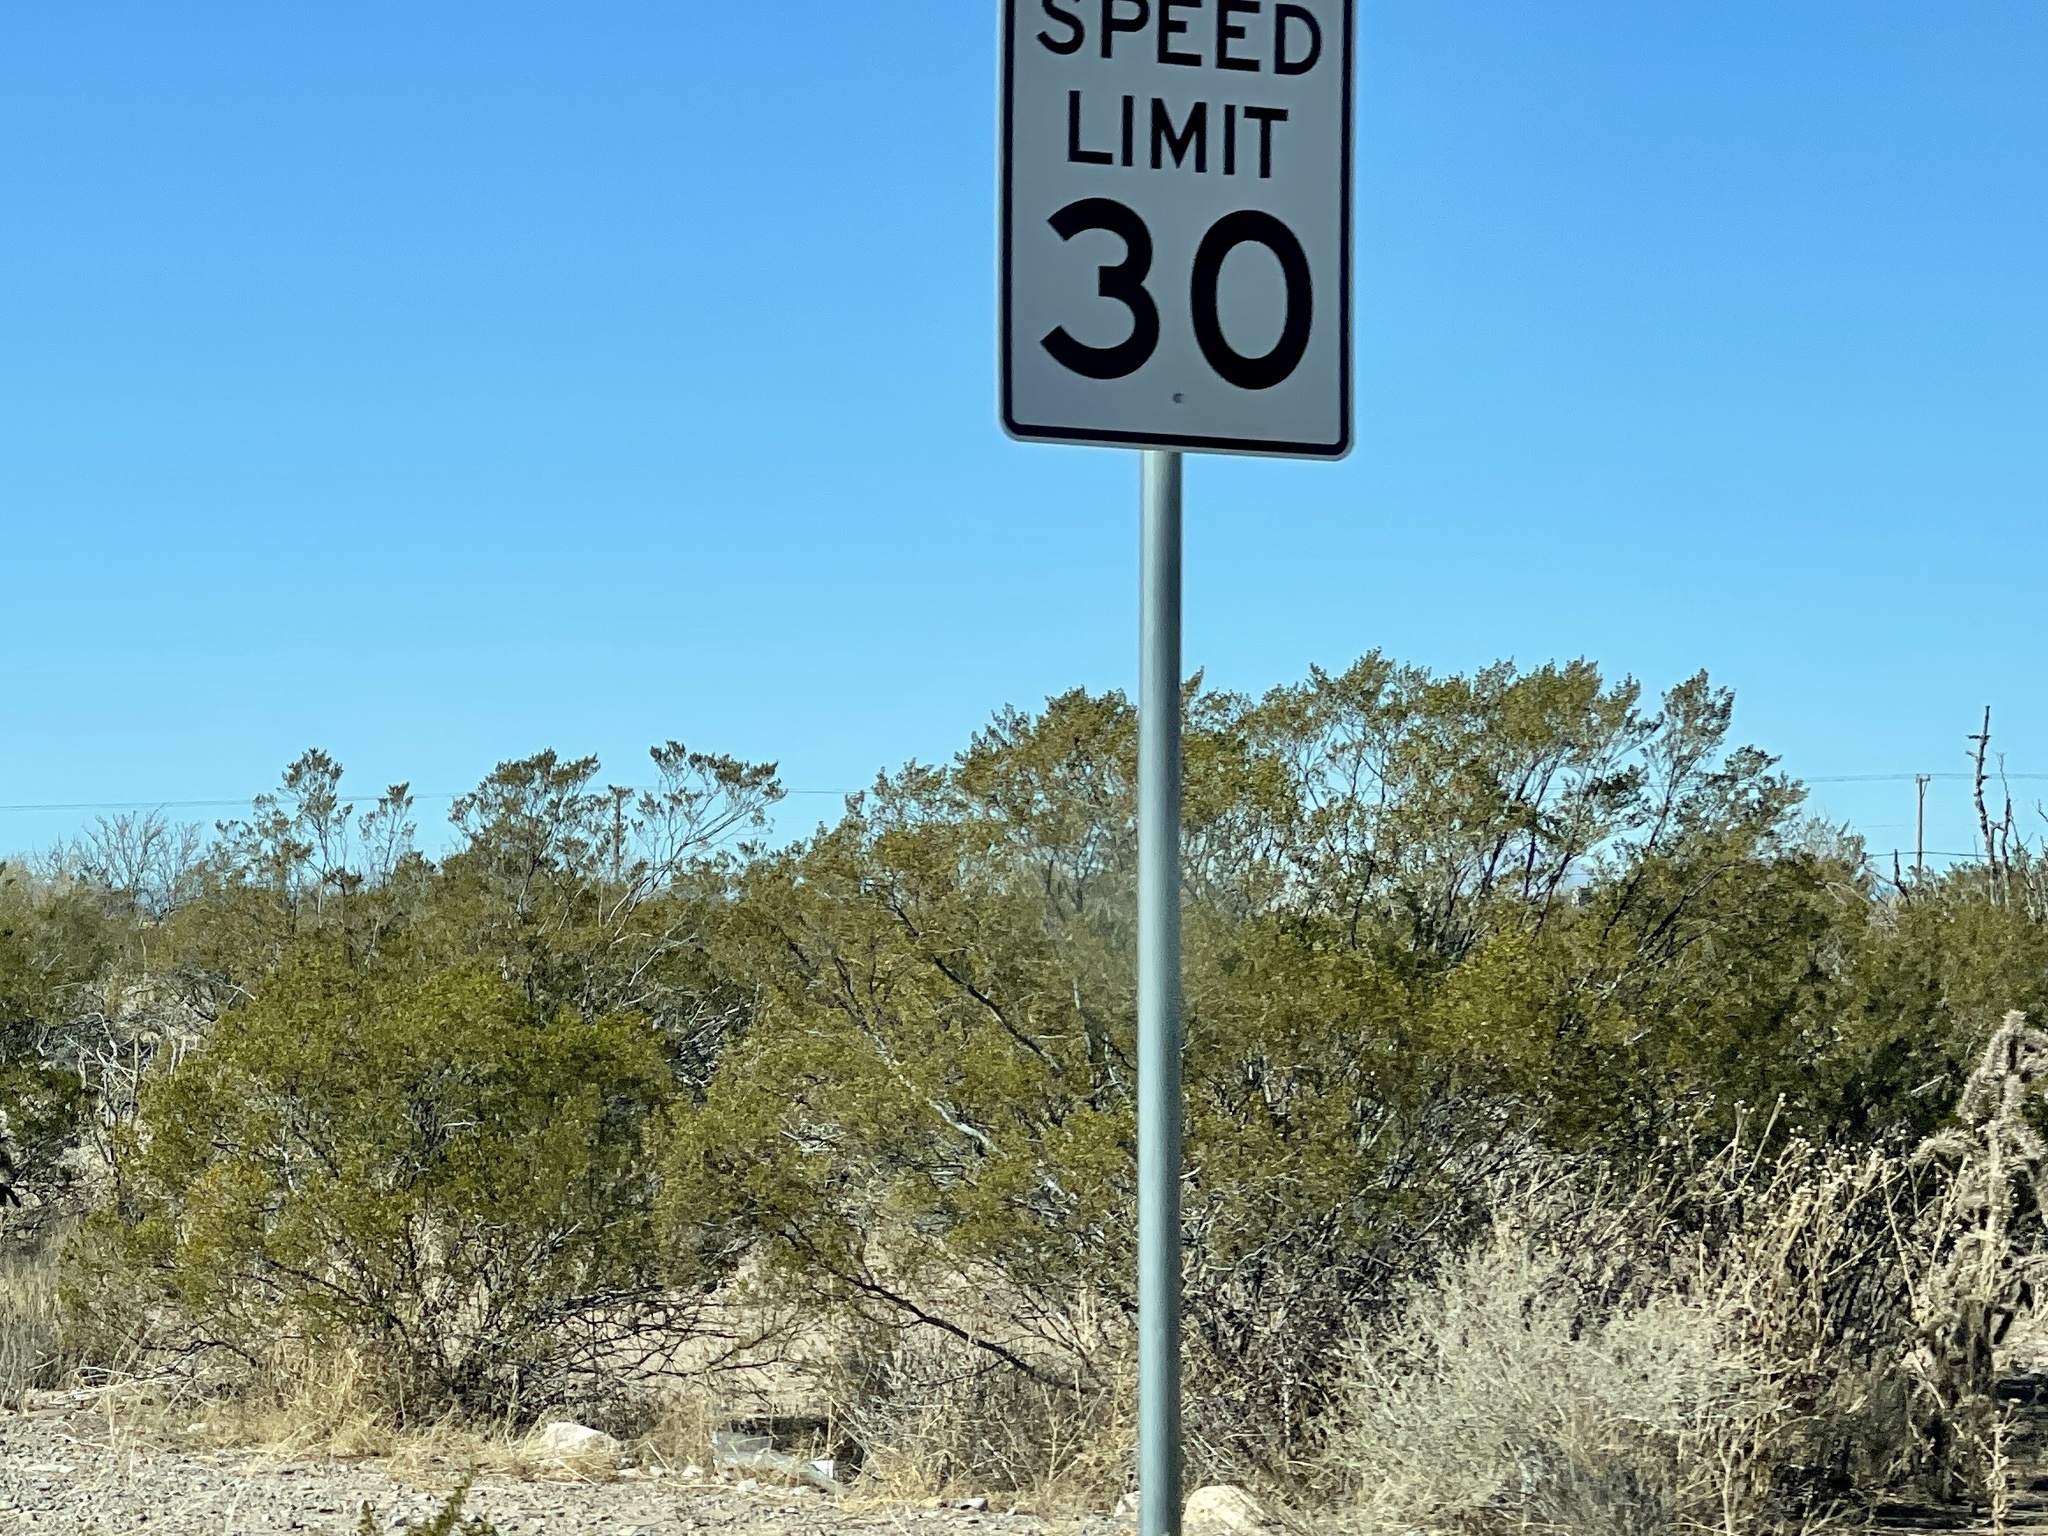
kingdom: Plantae
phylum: Tracheophyta
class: Magnoliopsida
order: Zygophyllales
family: Zygophyllaceae
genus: Larrea
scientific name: Larrea tridentata
